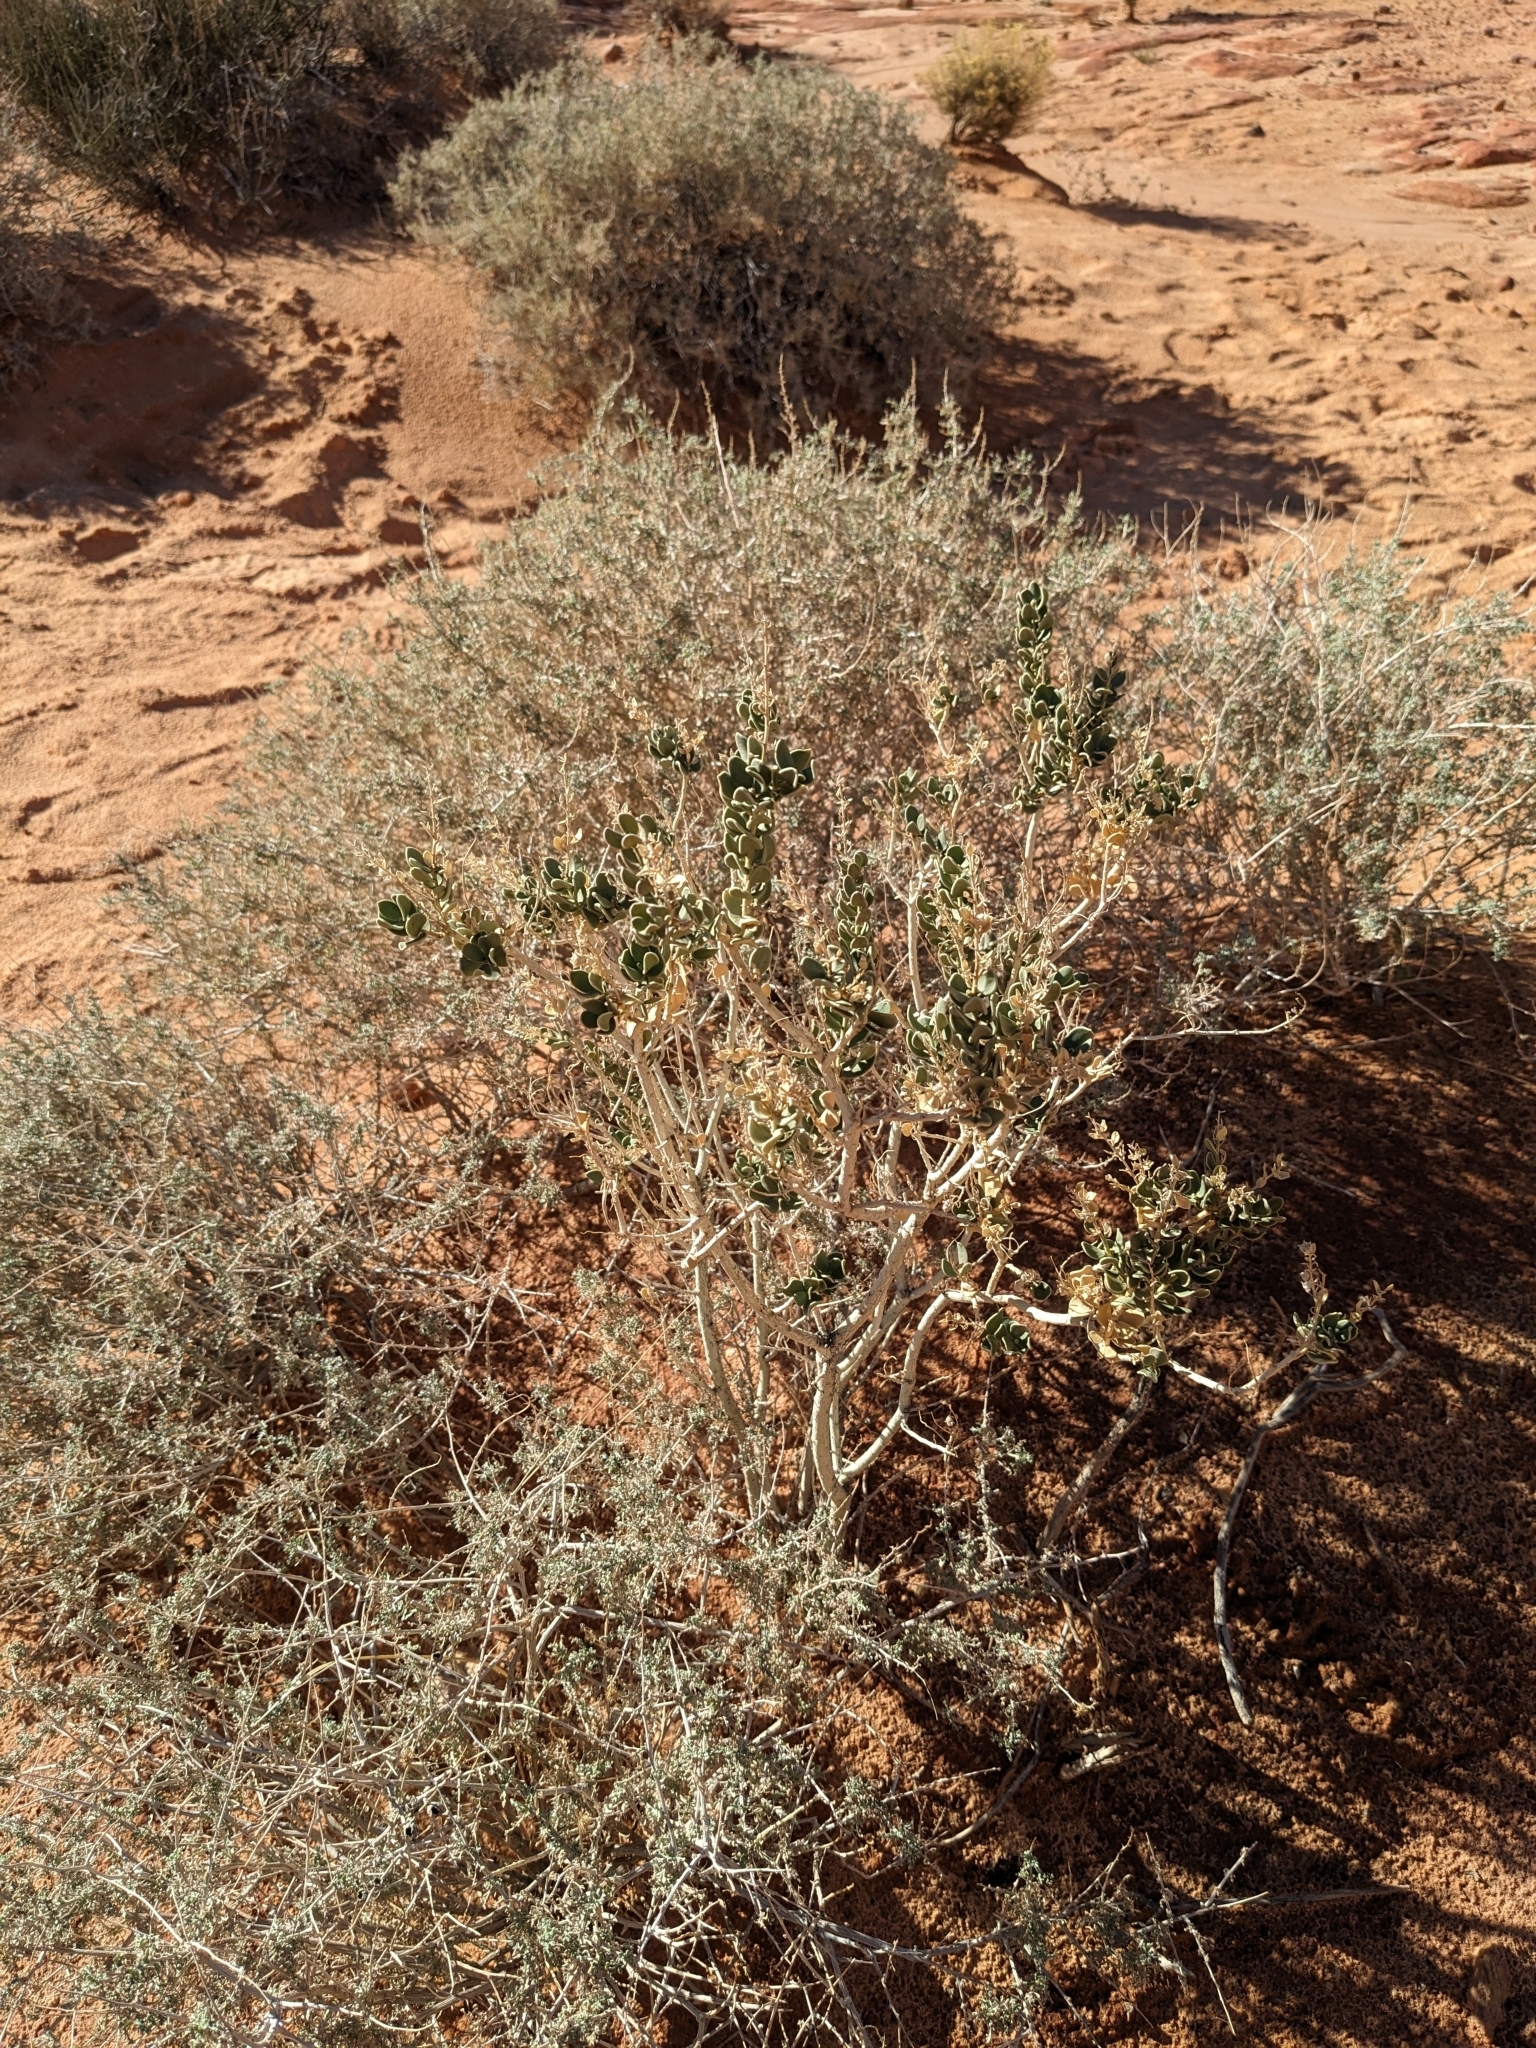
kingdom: Plantae
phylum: Tracheophyta
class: Magnoliopsida
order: Celastrales
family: Celastraceae
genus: Mortonia
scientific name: Mortonia utahensis
